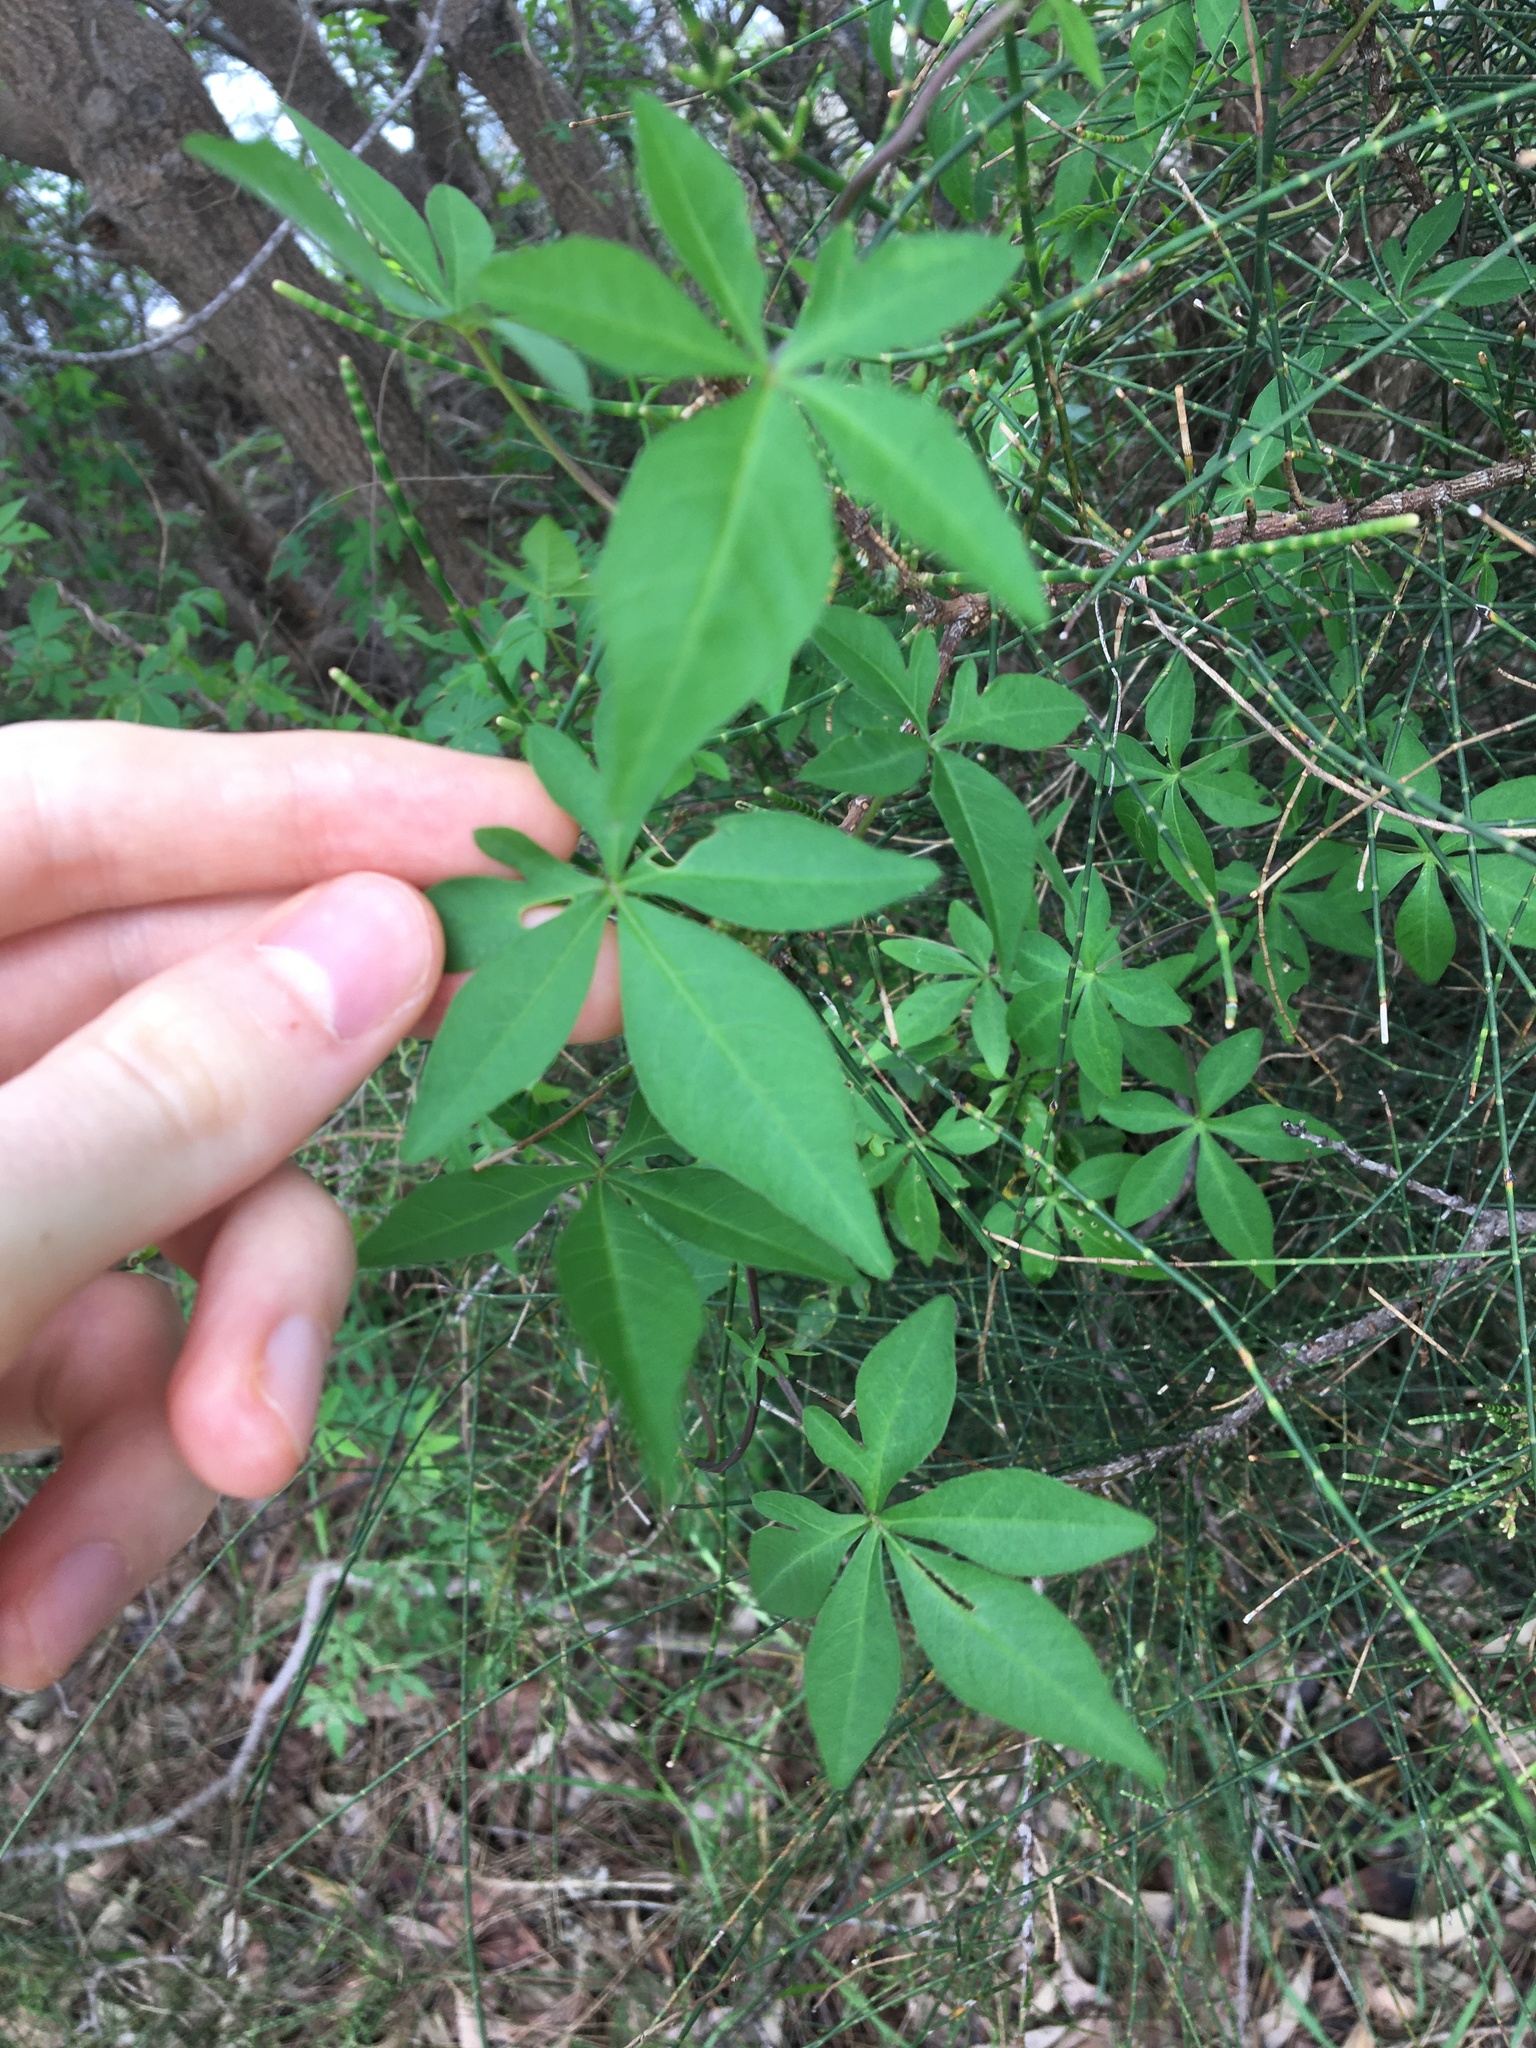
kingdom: Plantae
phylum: Tracheophyta
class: Magnoliopsida
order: Solanales
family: Convolvulaceae
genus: Ipomoea
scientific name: Ipomoea cairica
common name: Mile a minute vine
